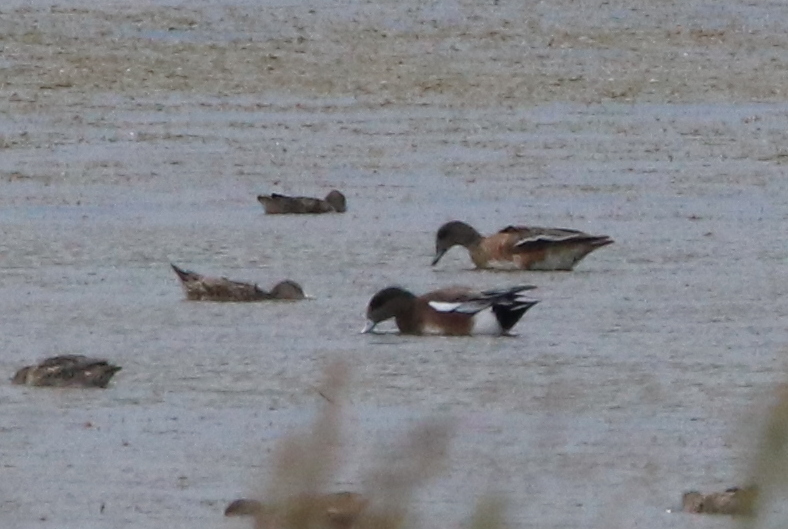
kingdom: Animalia
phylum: Chordata
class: Aves
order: Anseriformes
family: Anatidae
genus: Mareca
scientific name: Mareca americana
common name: American wigeon
